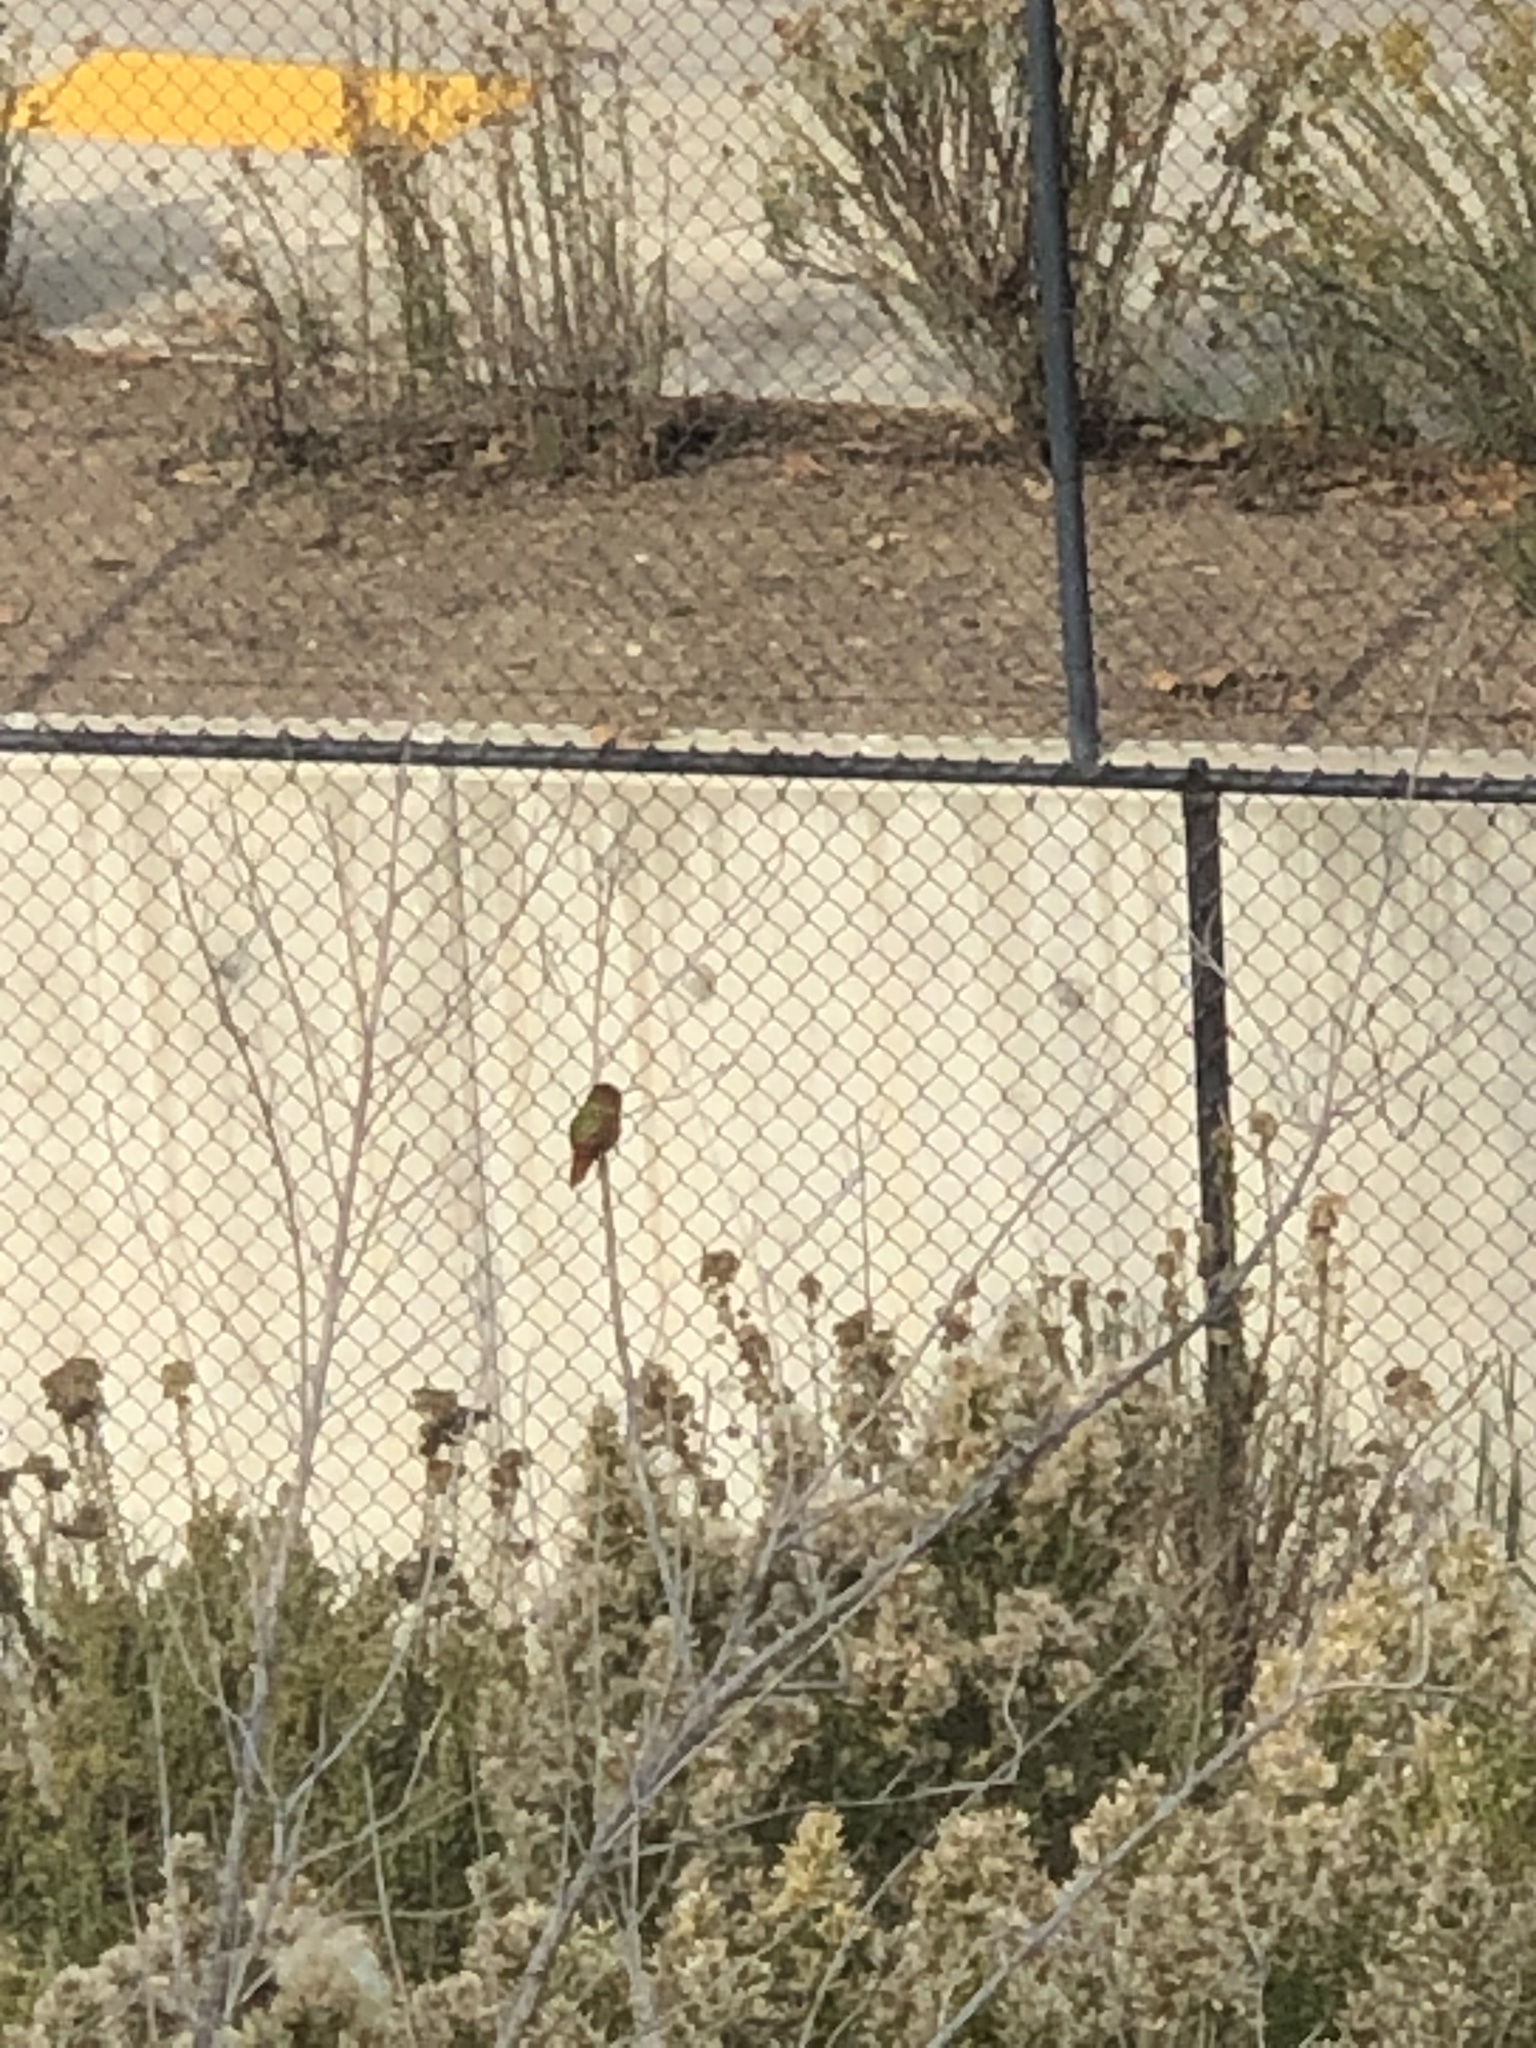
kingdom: Animalia
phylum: Chordata
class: Aves
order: Apodiformes
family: Trochilidae
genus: Selasphorus
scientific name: Selasphorus sasin
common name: Allen's hummingbird
